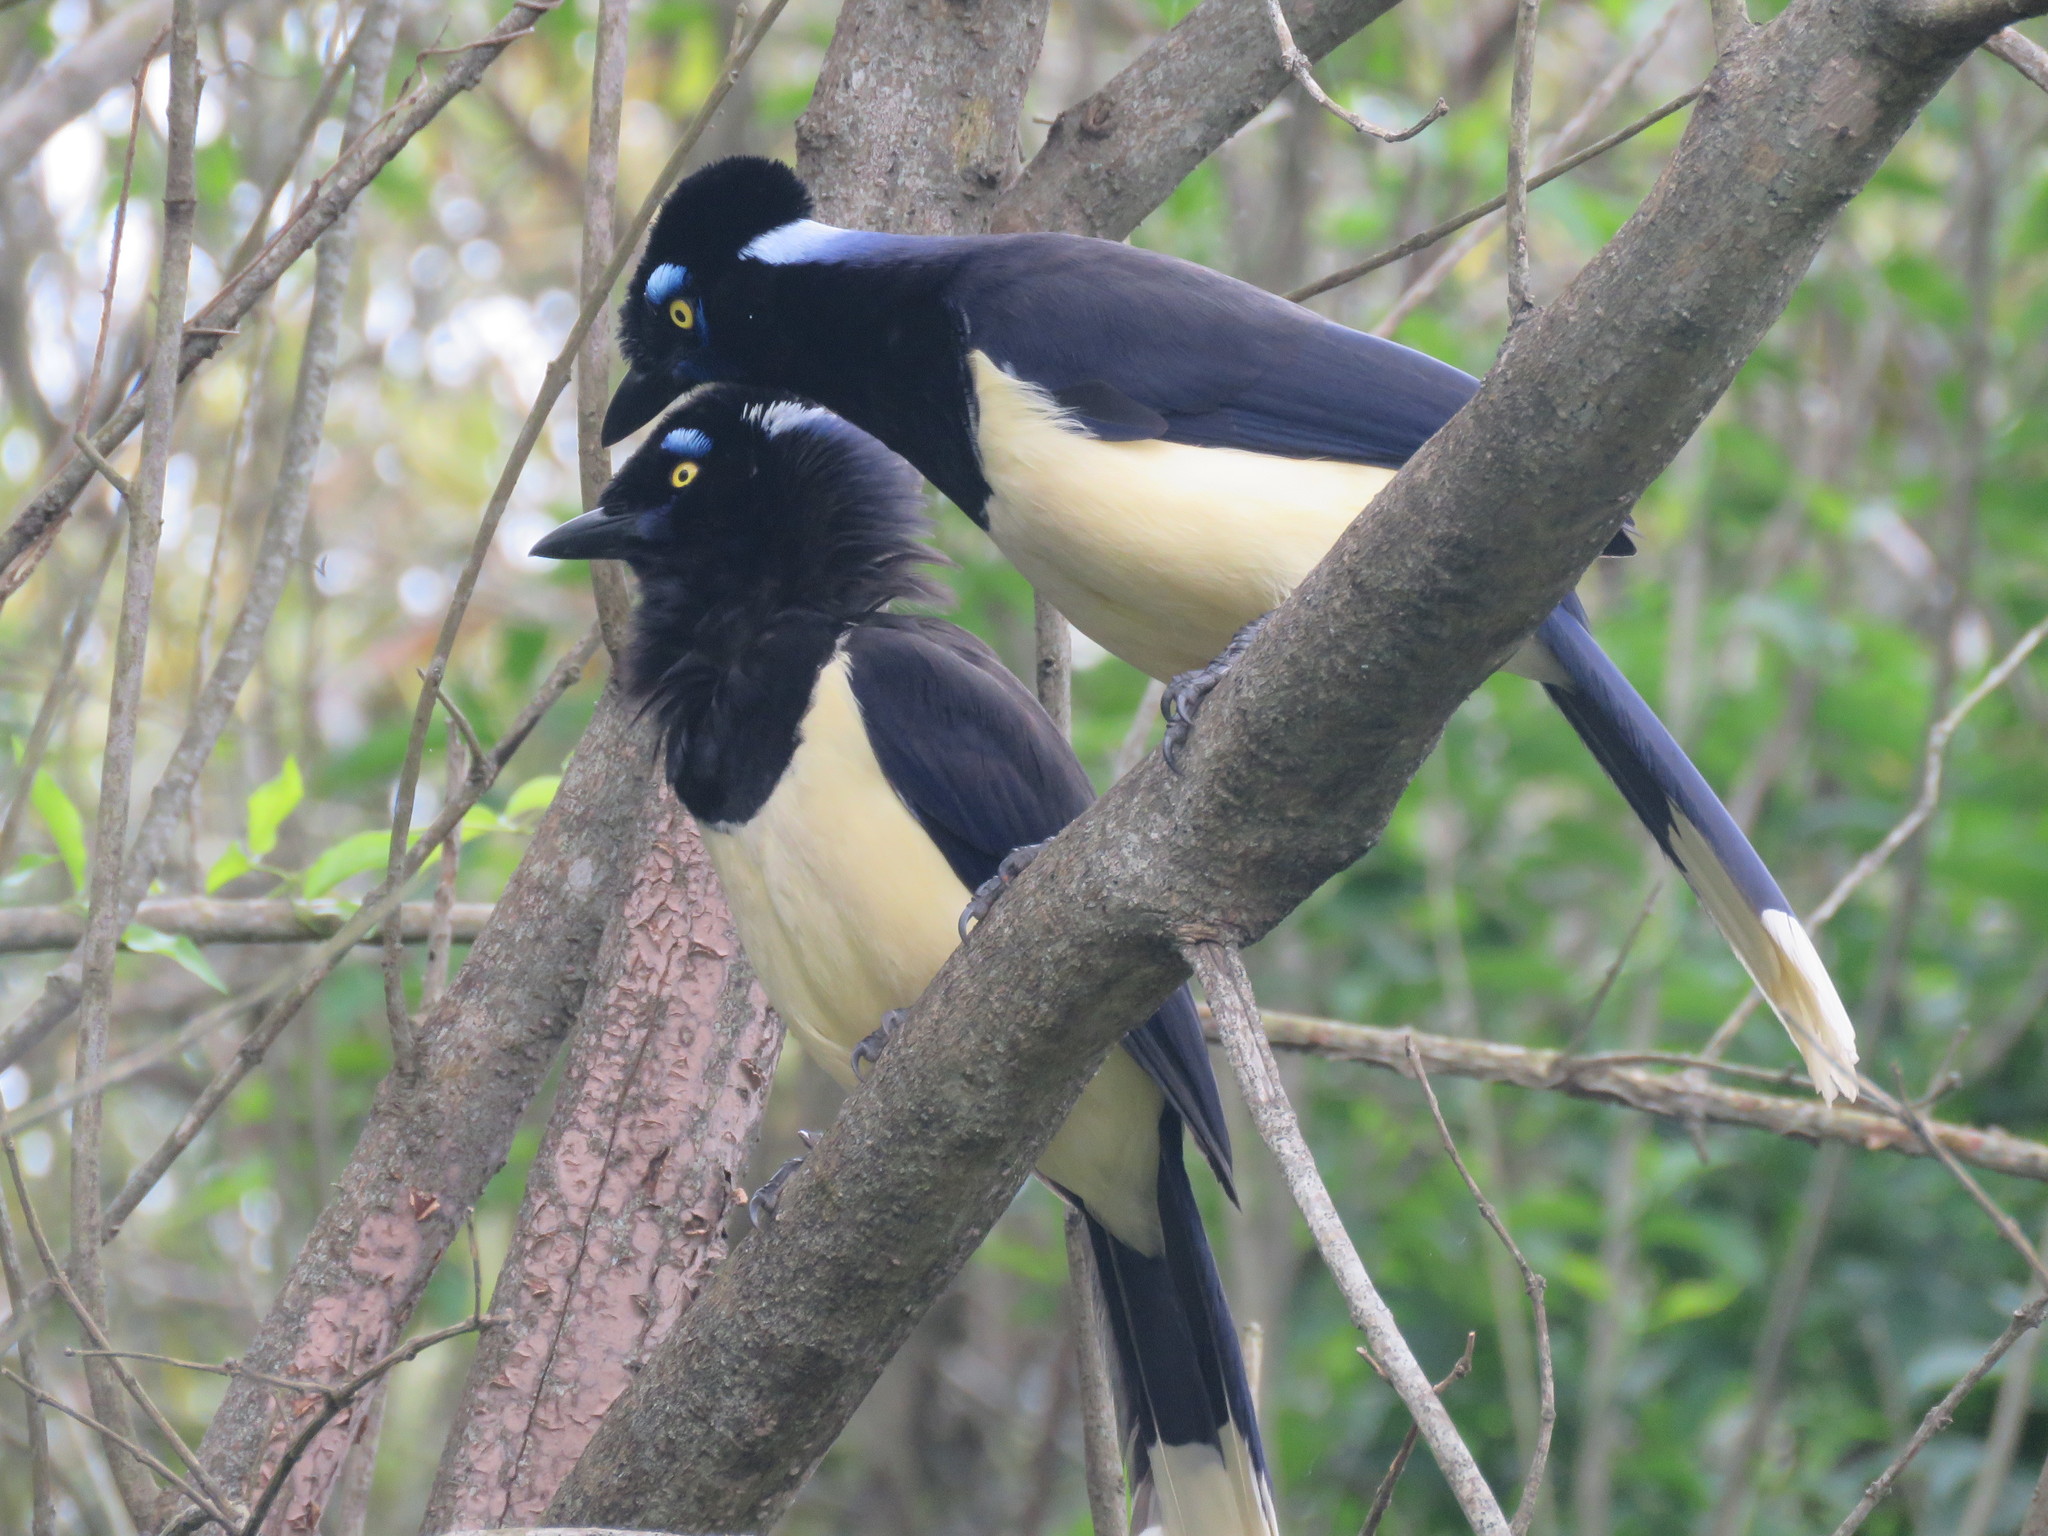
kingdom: Animalia
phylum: Chordata
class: Aves
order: Passeriformes
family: Corvidae
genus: Cyanocorax
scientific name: Cyanocorax chrysops
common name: Plush-crested jay
